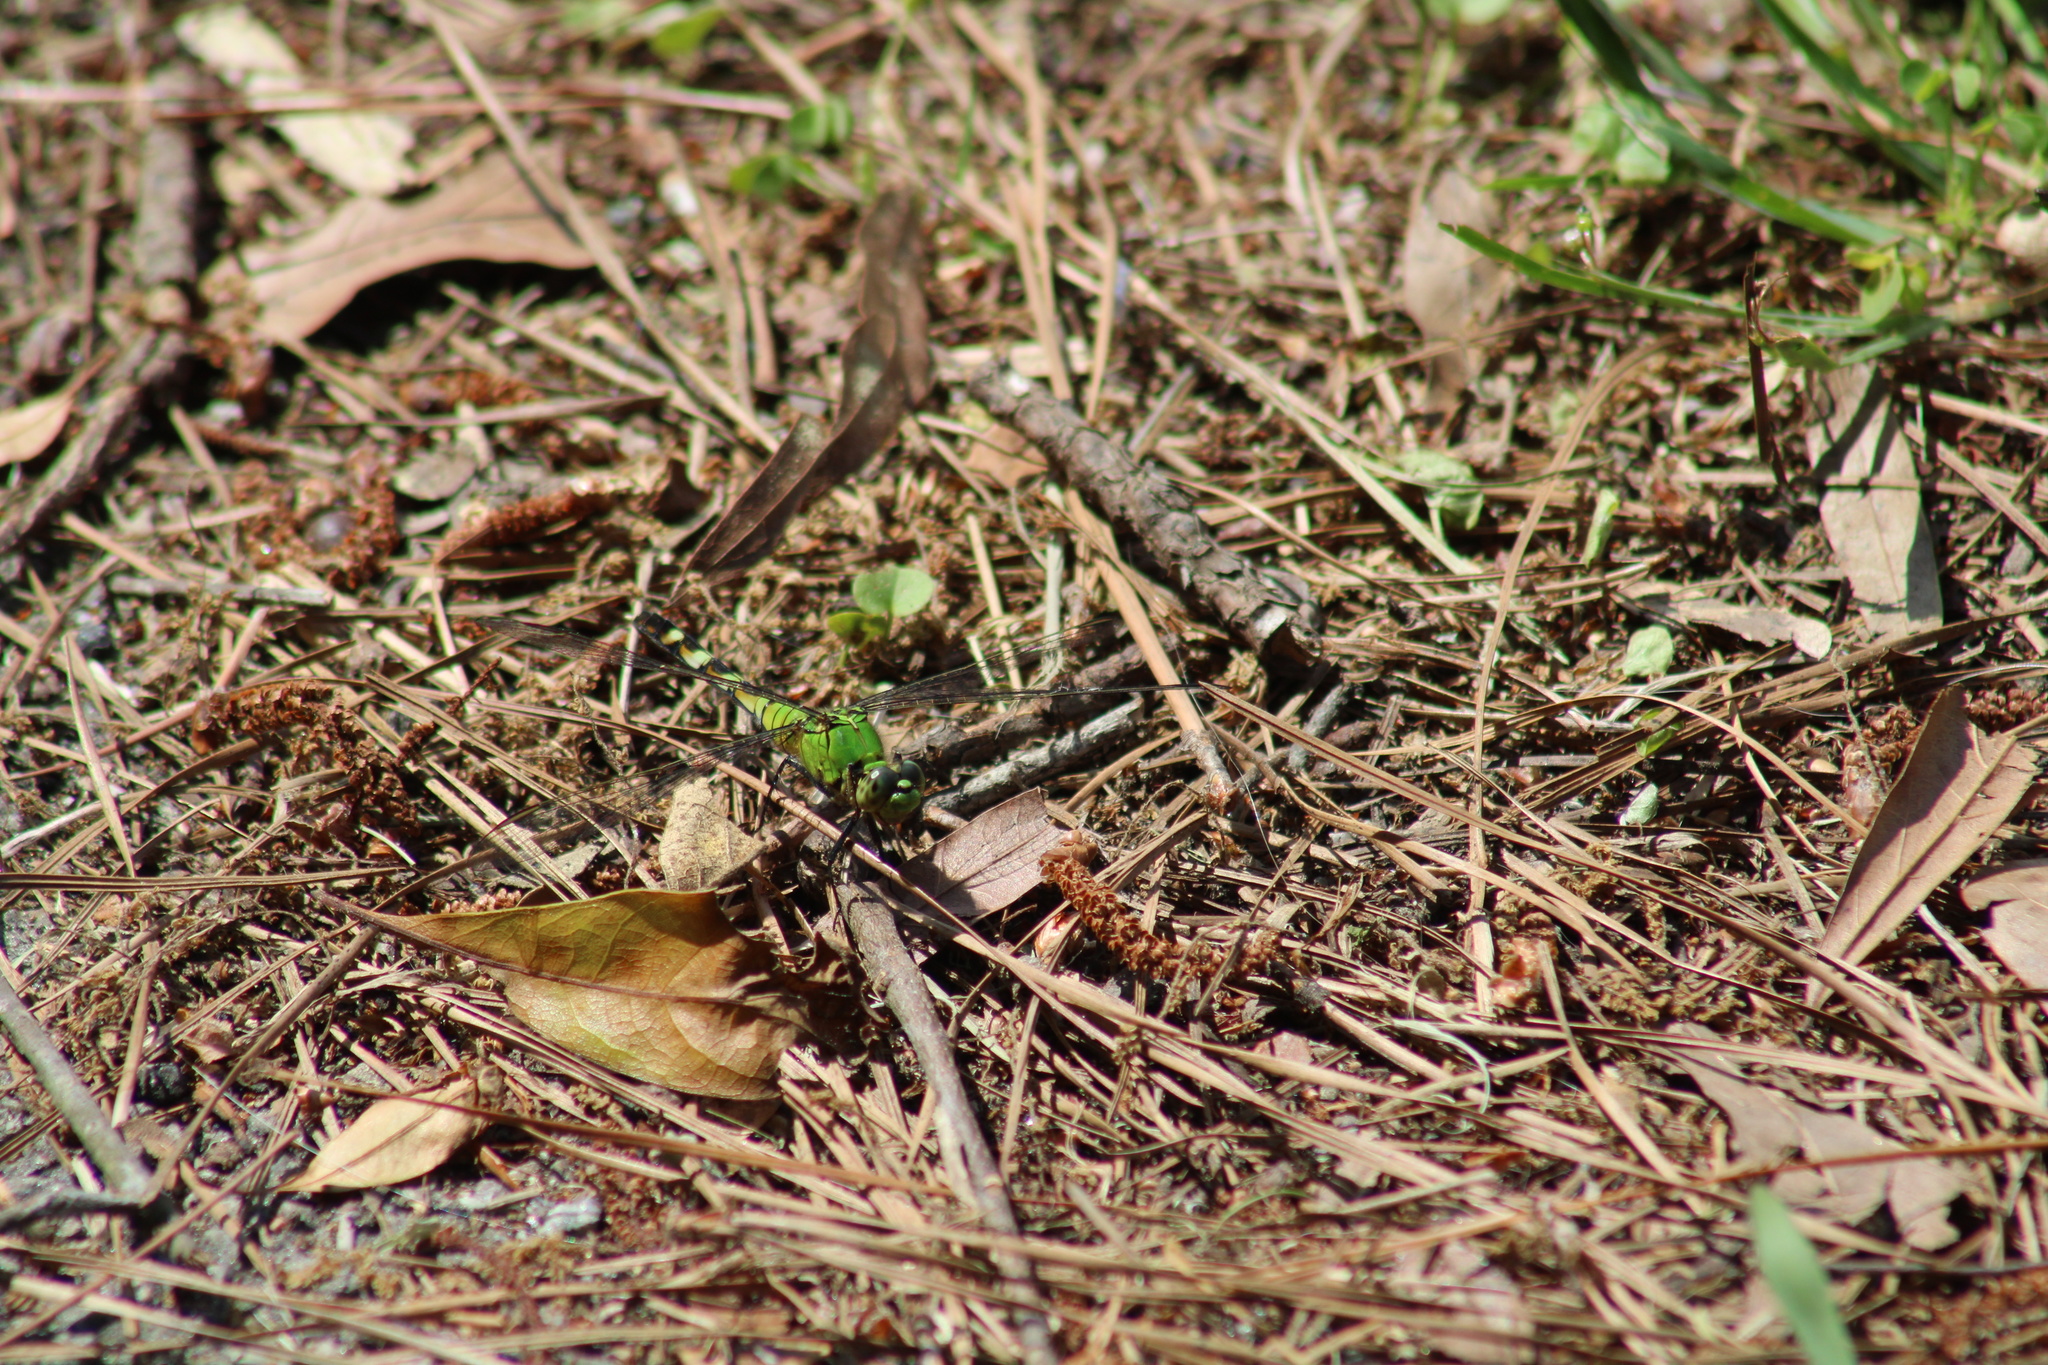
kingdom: Animalia
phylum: Arthropoda
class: Insecta
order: Odonata
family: Libellulidae
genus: Erythemis
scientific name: Erythemis simplicicollis
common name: Eastern pondhawk
